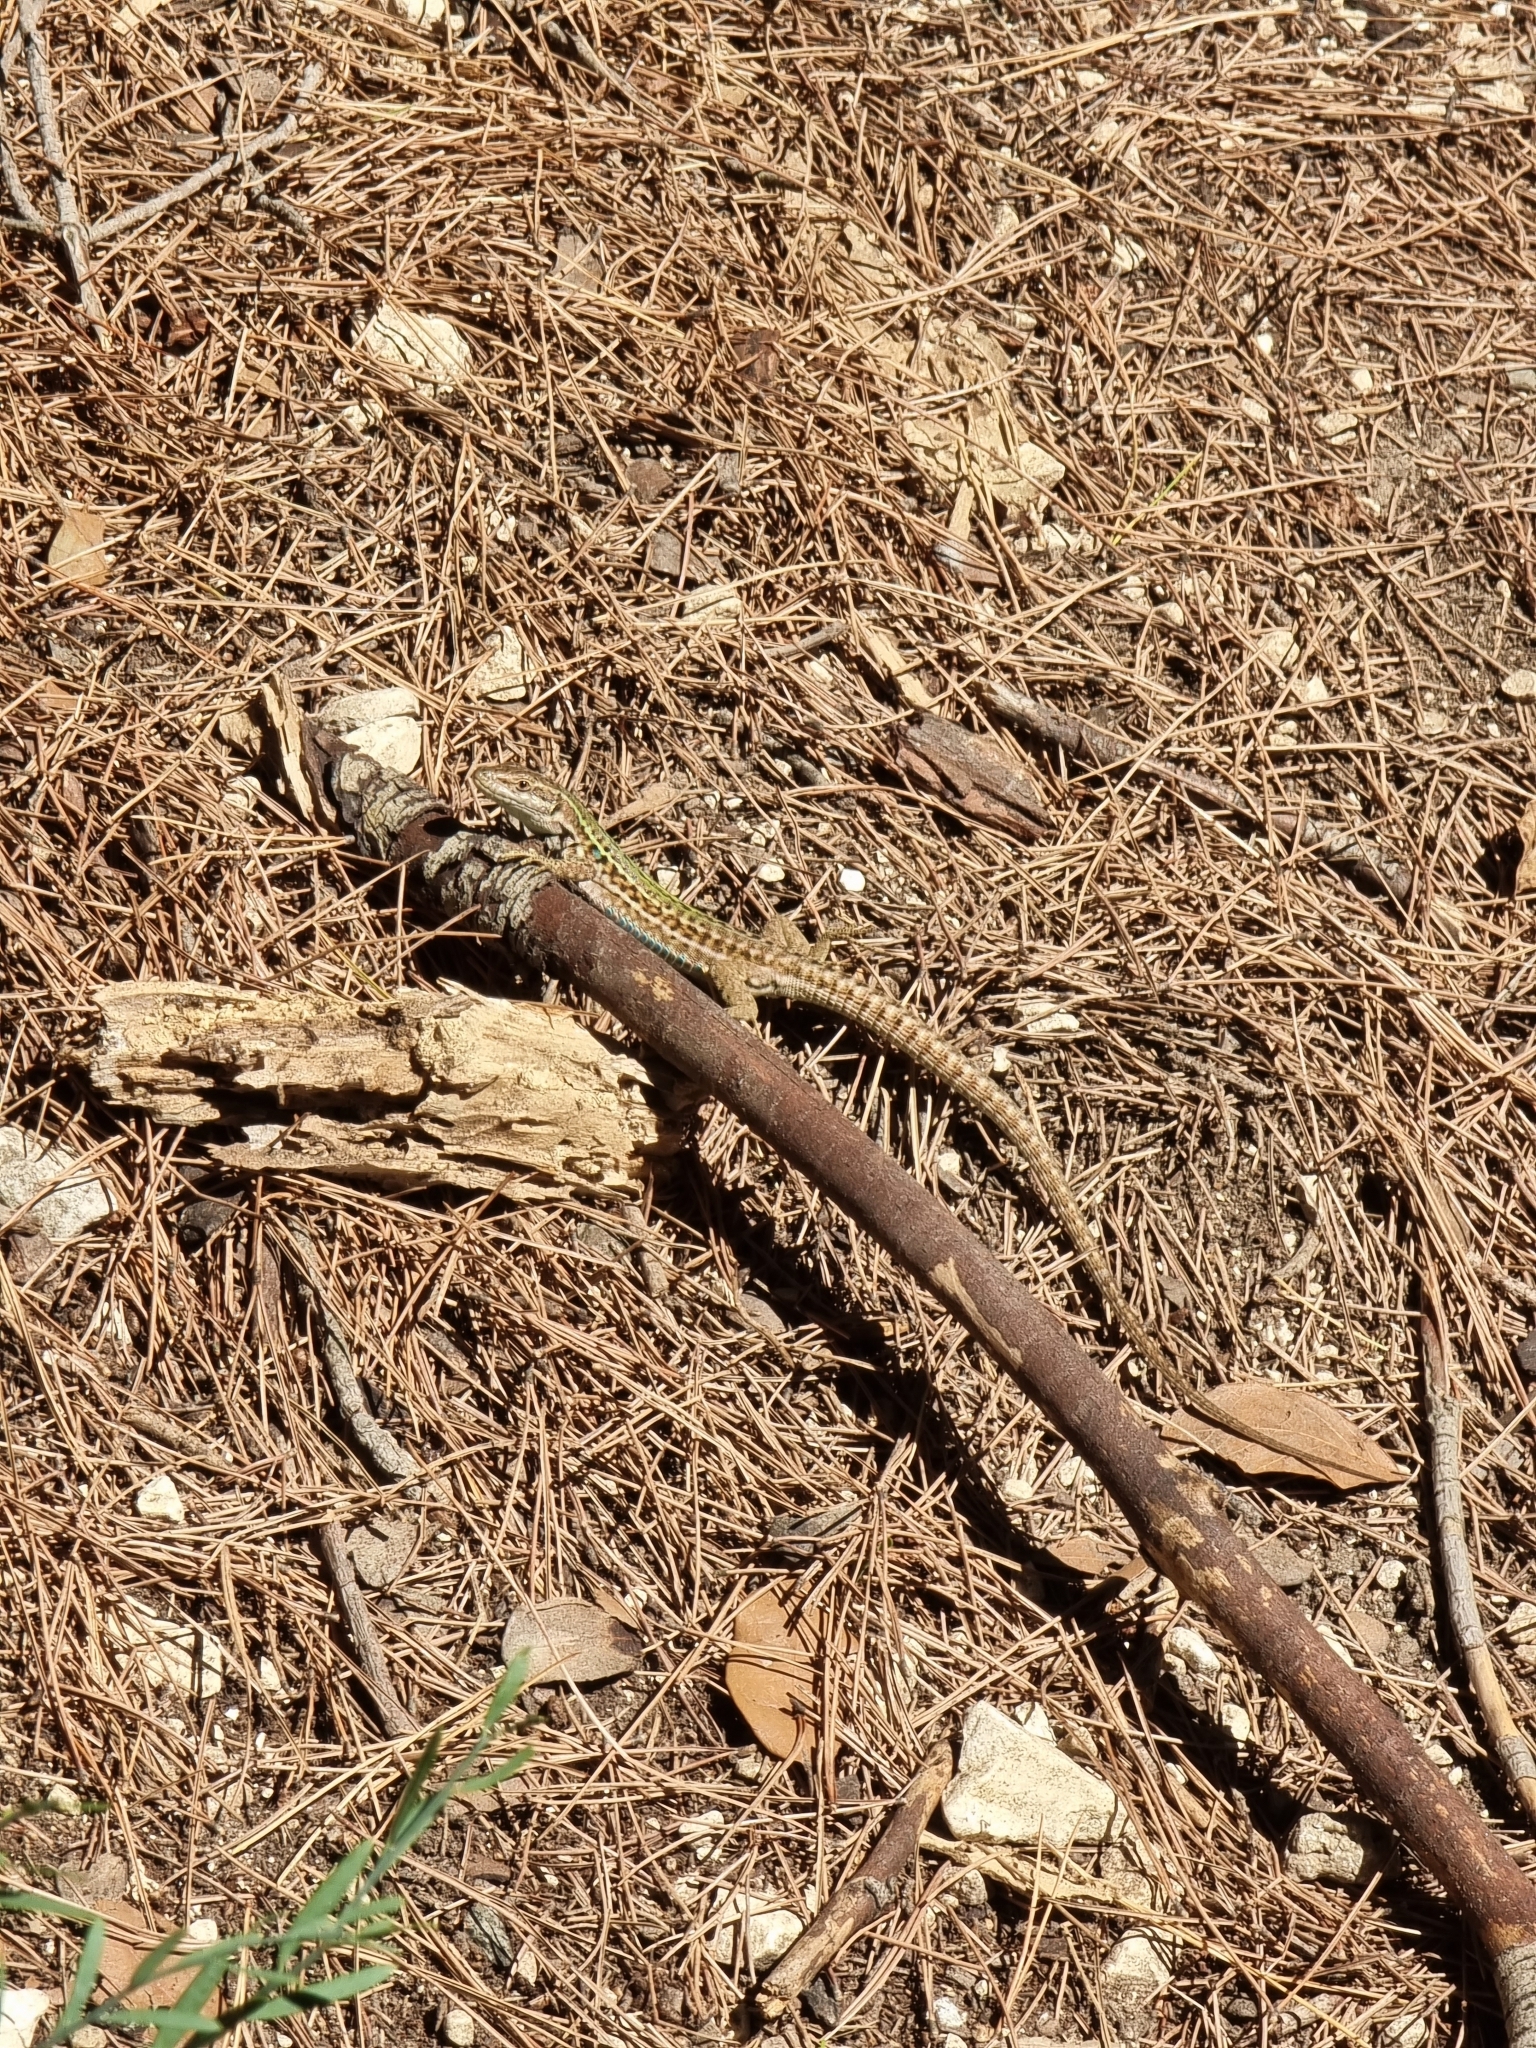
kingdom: Animalia
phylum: Chordata
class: Squamata
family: Lacertidae
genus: Podarcis
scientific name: Podarcis siculus
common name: Italian wall lizard
